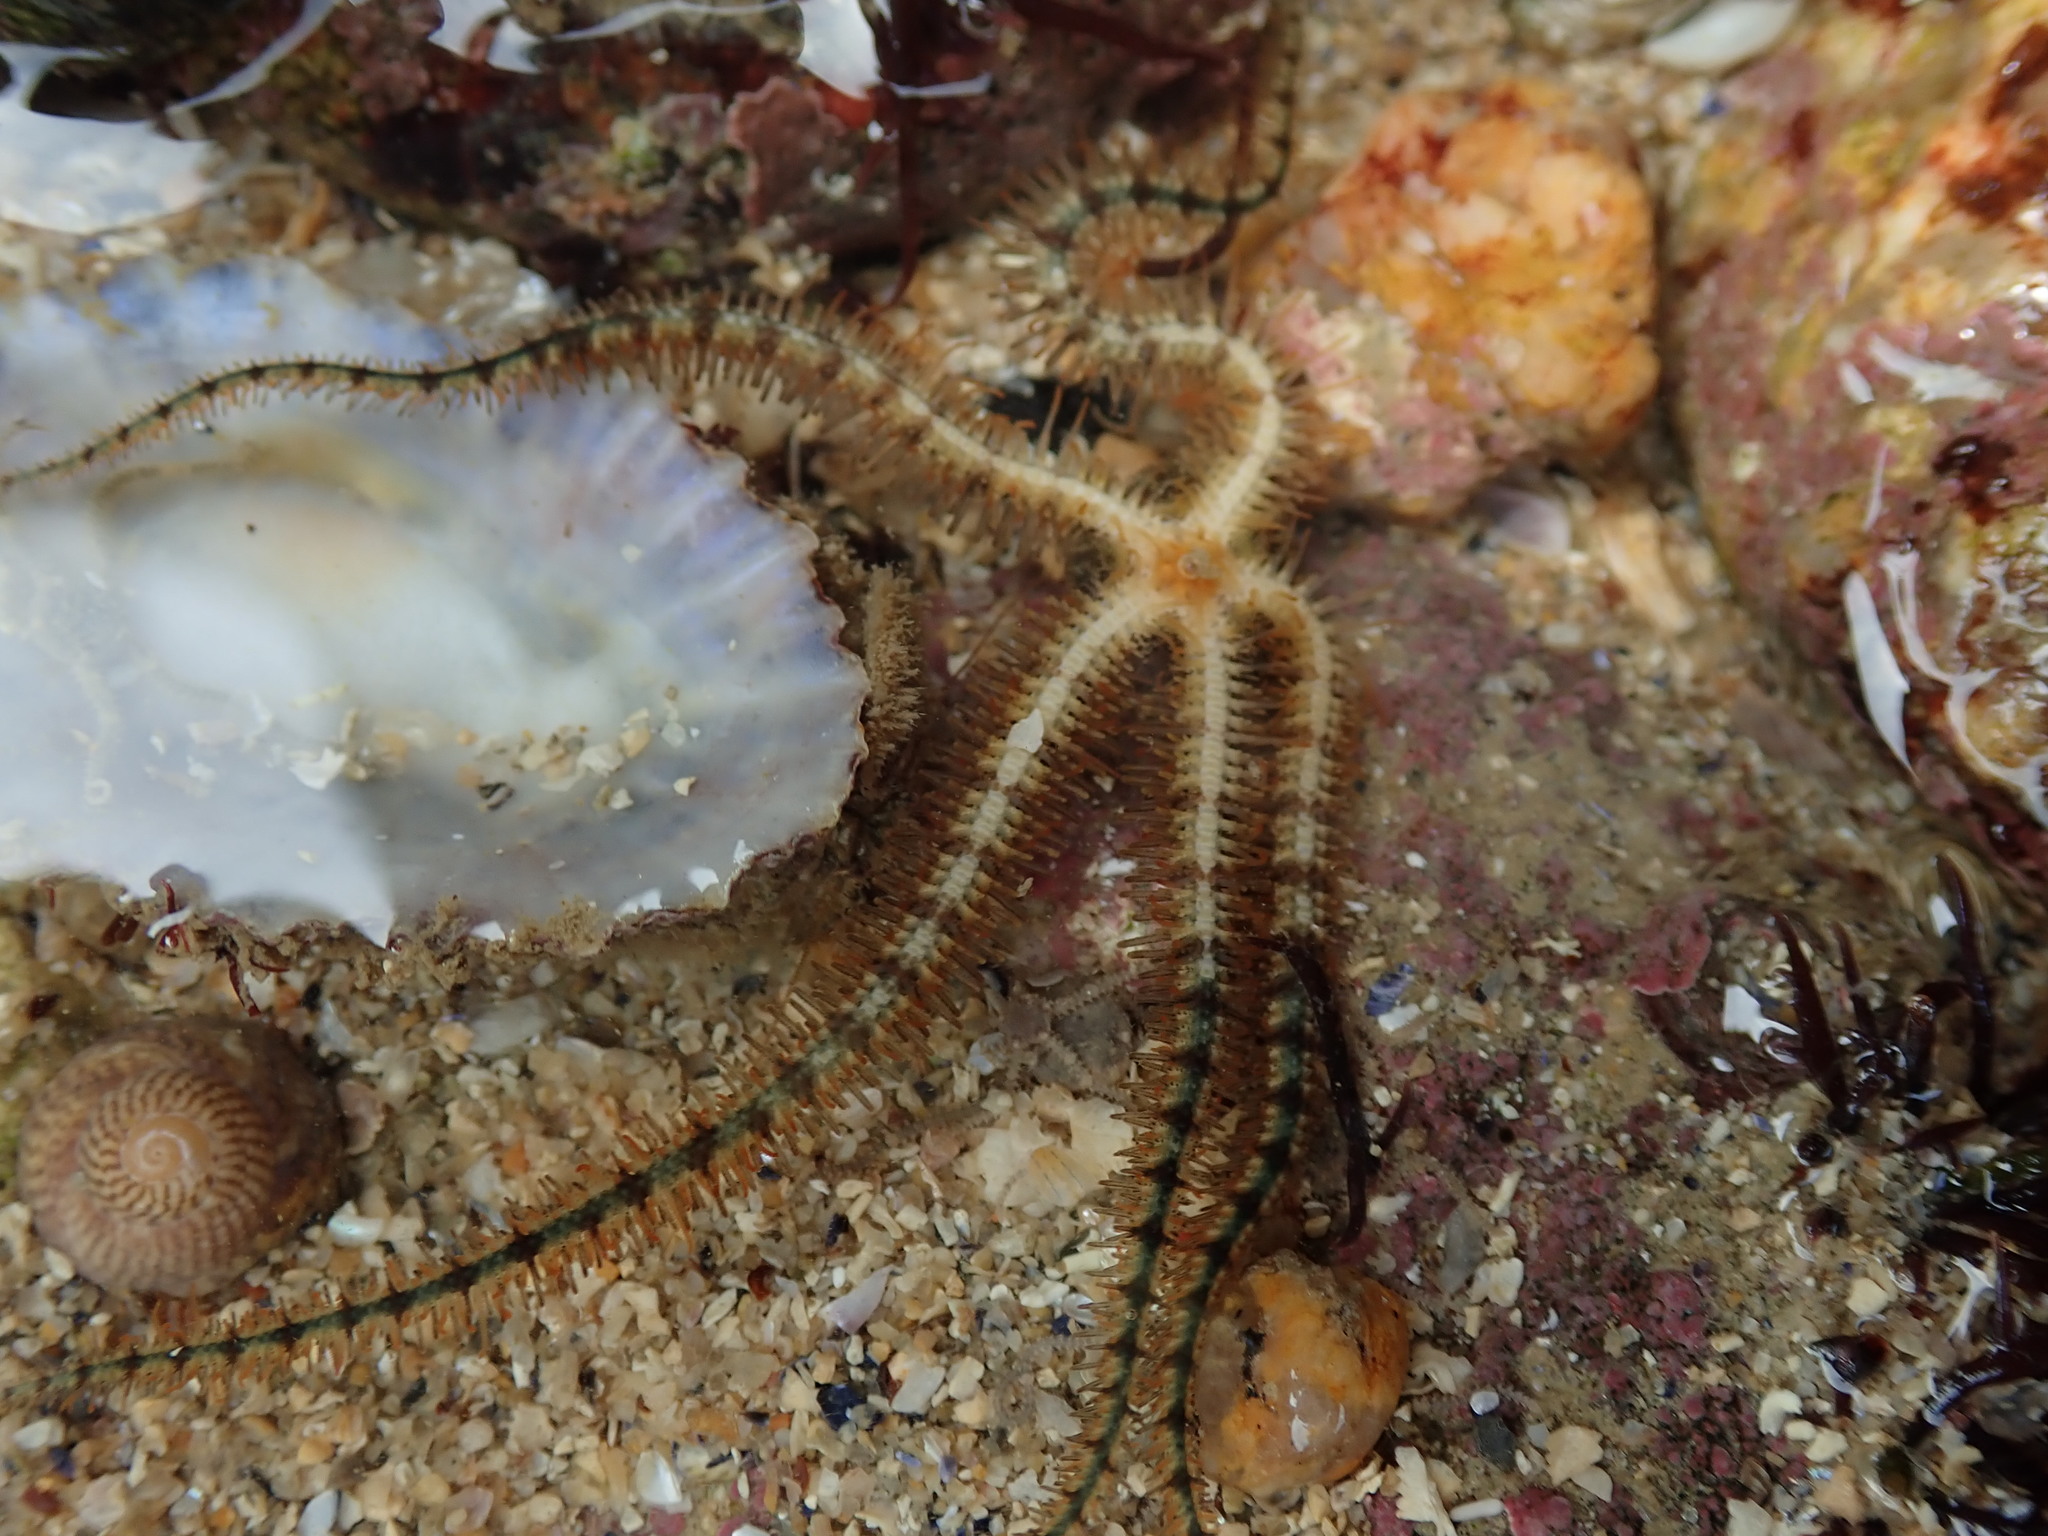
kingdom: Animalia
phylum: Echinodermata
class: Ophiuroidea
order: Amphilepidida
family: Ophiotrichidae
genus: Ophiothrix
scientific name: Ophiothrix fragilis
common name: Common brittlestar
